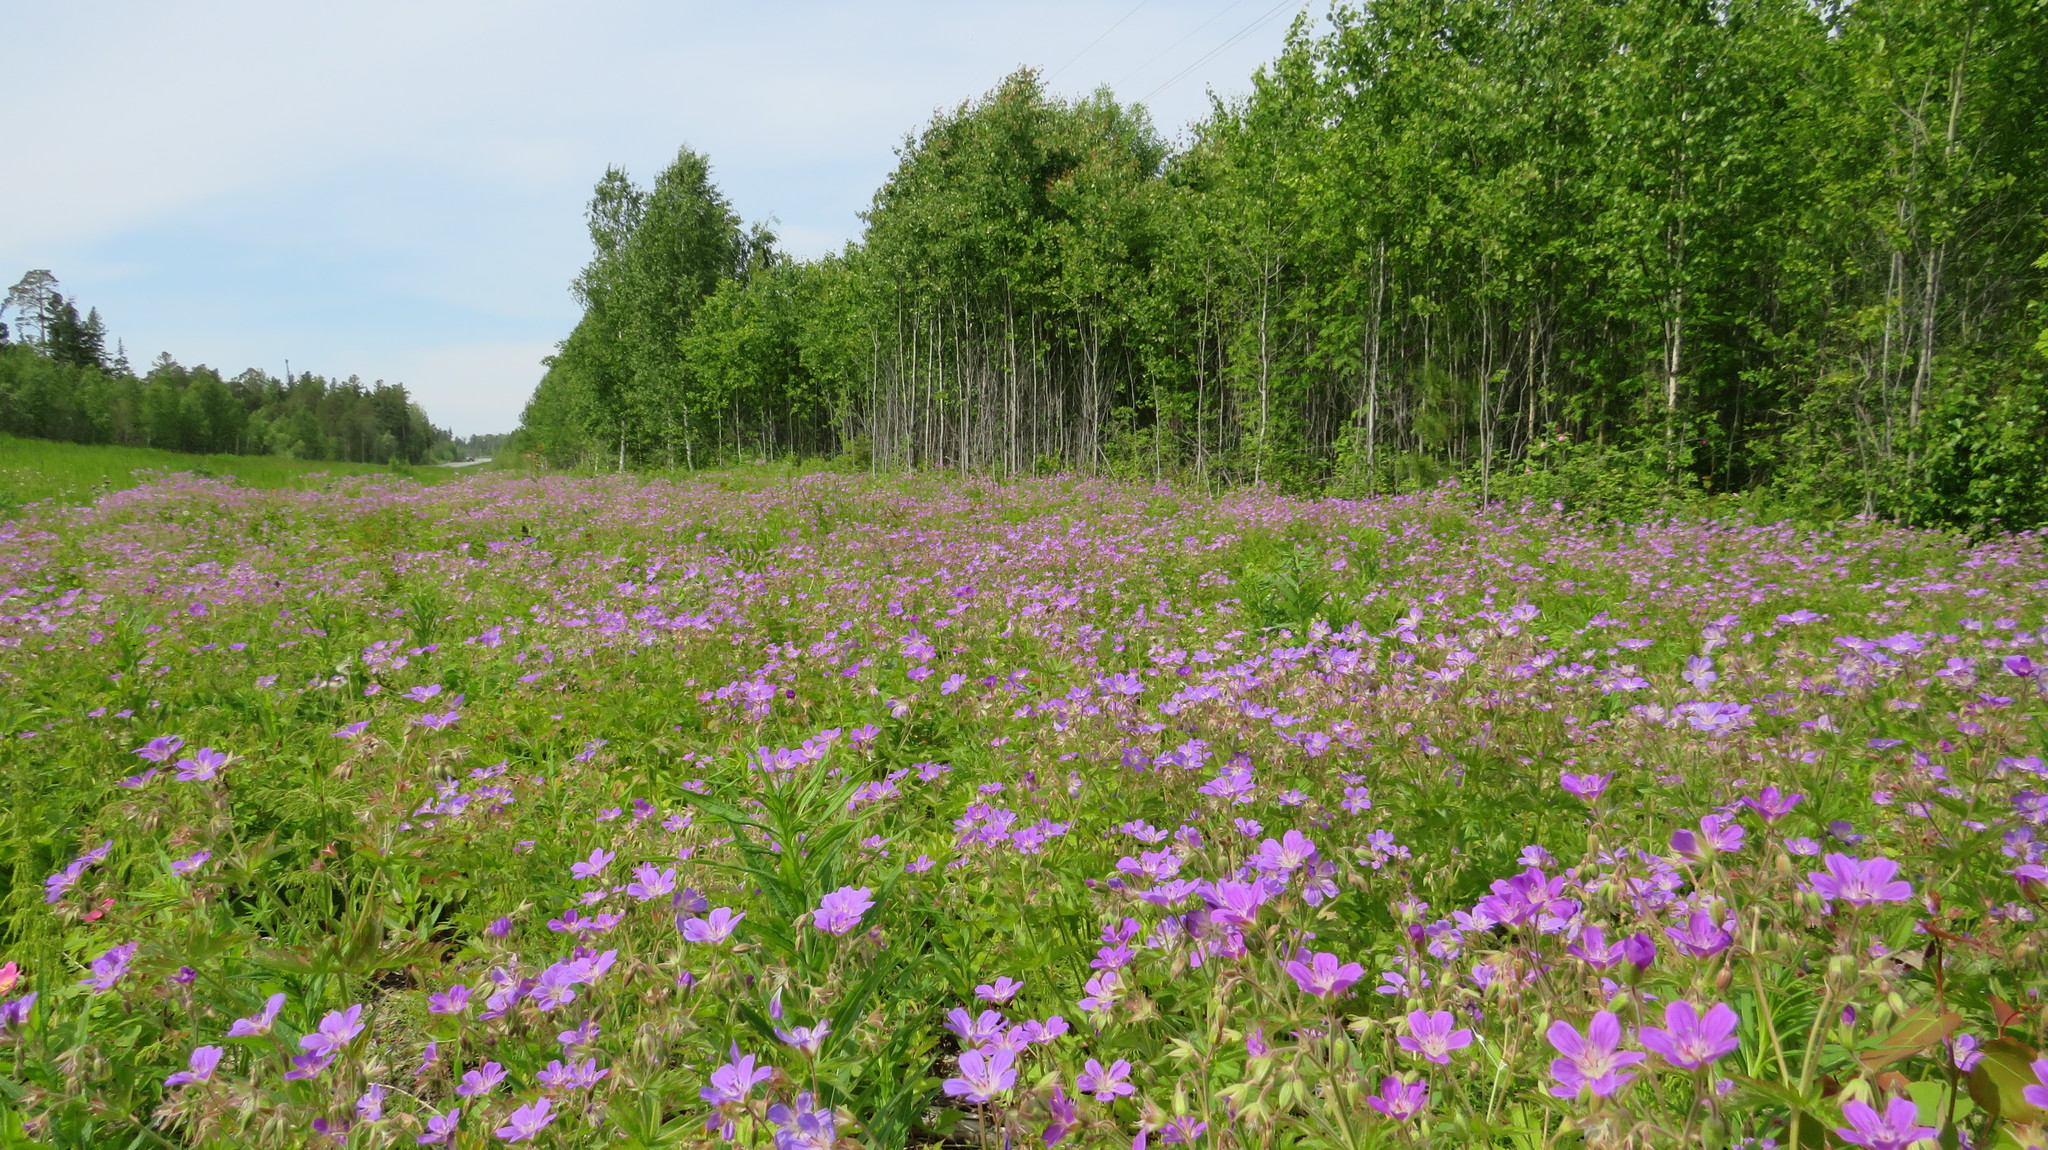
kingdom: Plantae
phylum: Tracheophyta
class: Magnoliopsida
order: Geraniales
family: Geraniaceae
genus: Geranium
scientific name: Geranium sylvaticum
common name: Wood crane's-bill
